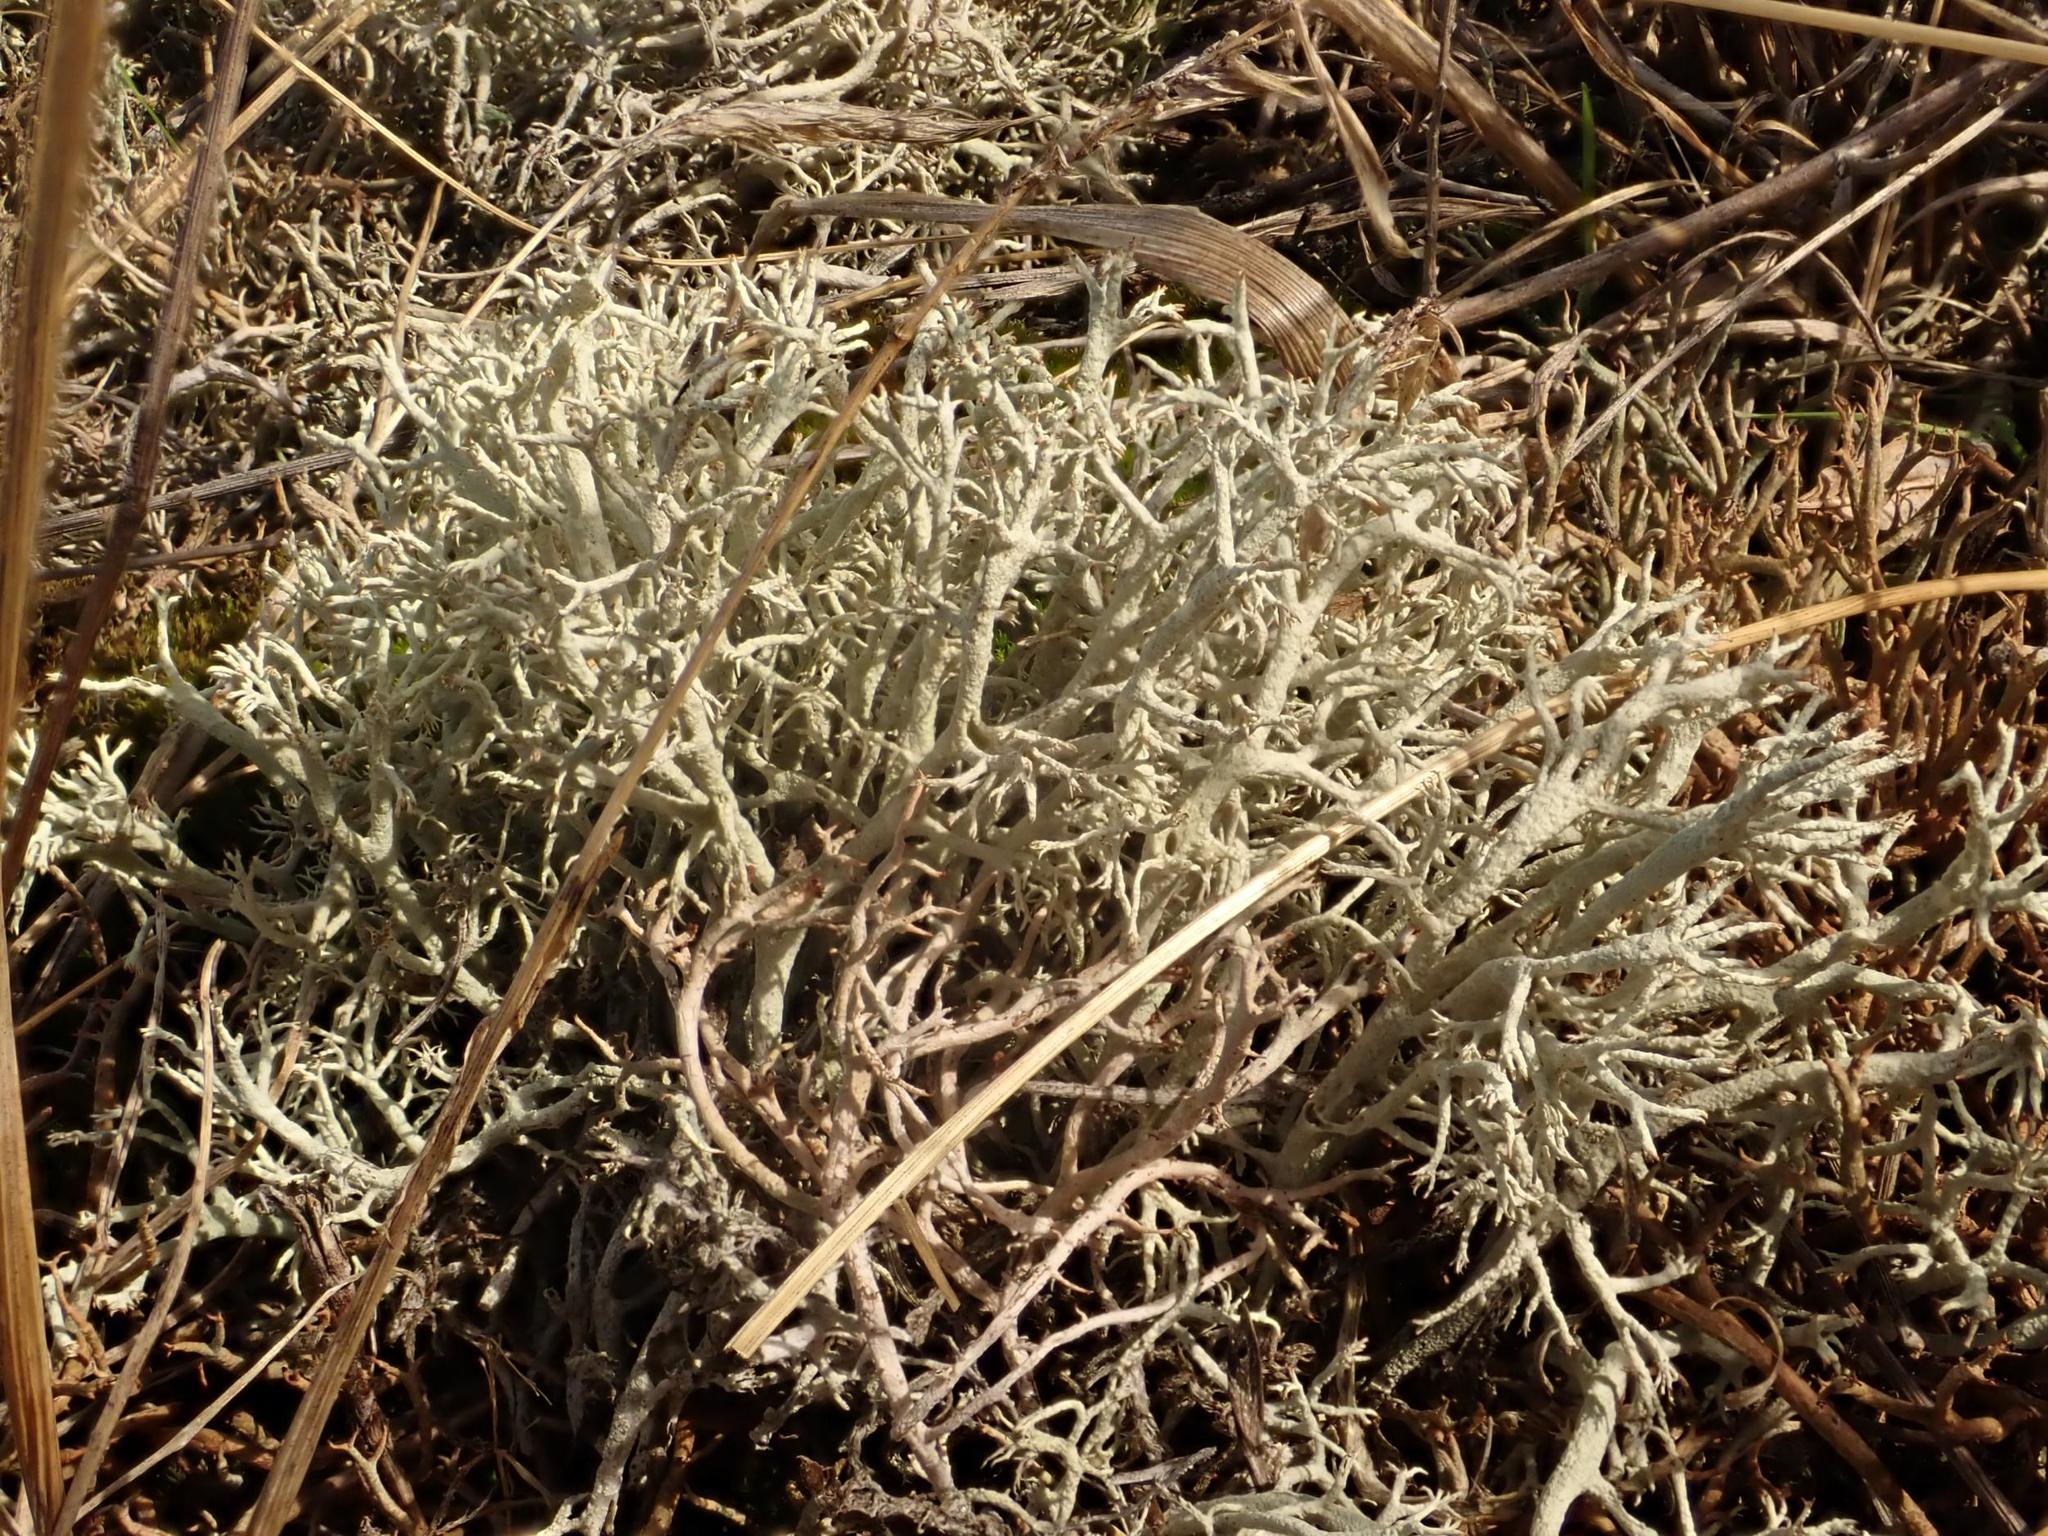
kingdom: Fungi
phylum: Ascomycota
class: Lecanoromycetes
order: Lecanorales
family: Cladoniaceae
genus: Cladonia
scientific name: Cladonia arbuscula
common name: Reindeer lichen
